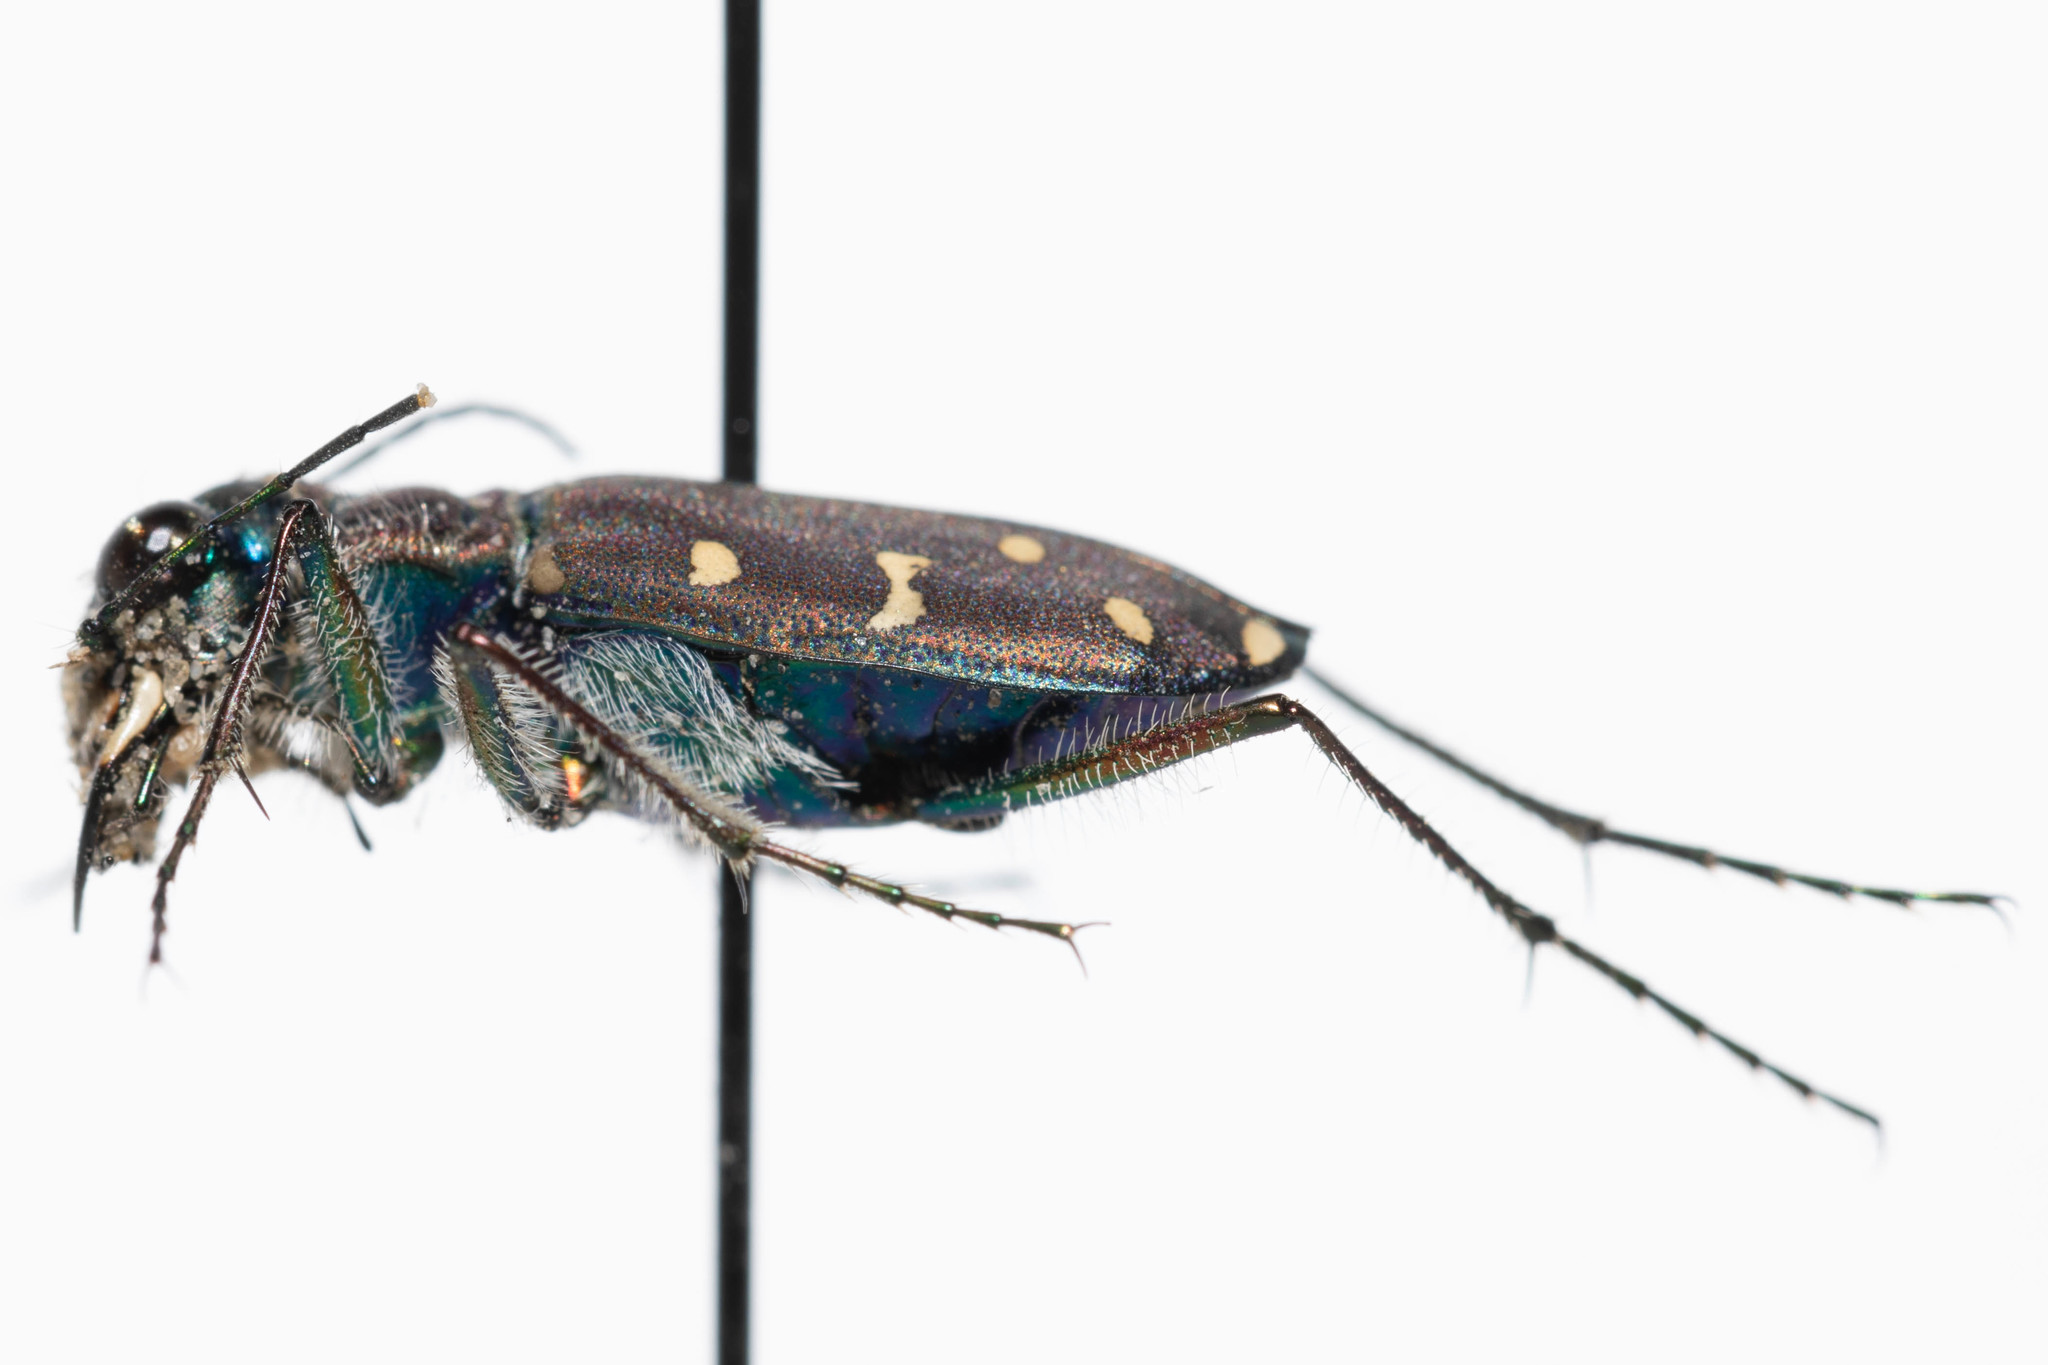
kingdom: Animalia
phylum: Arthropoda
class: Insecta
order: Coleoptera
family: Carabidae
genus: Cicindela
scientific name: Cicindela oregona
